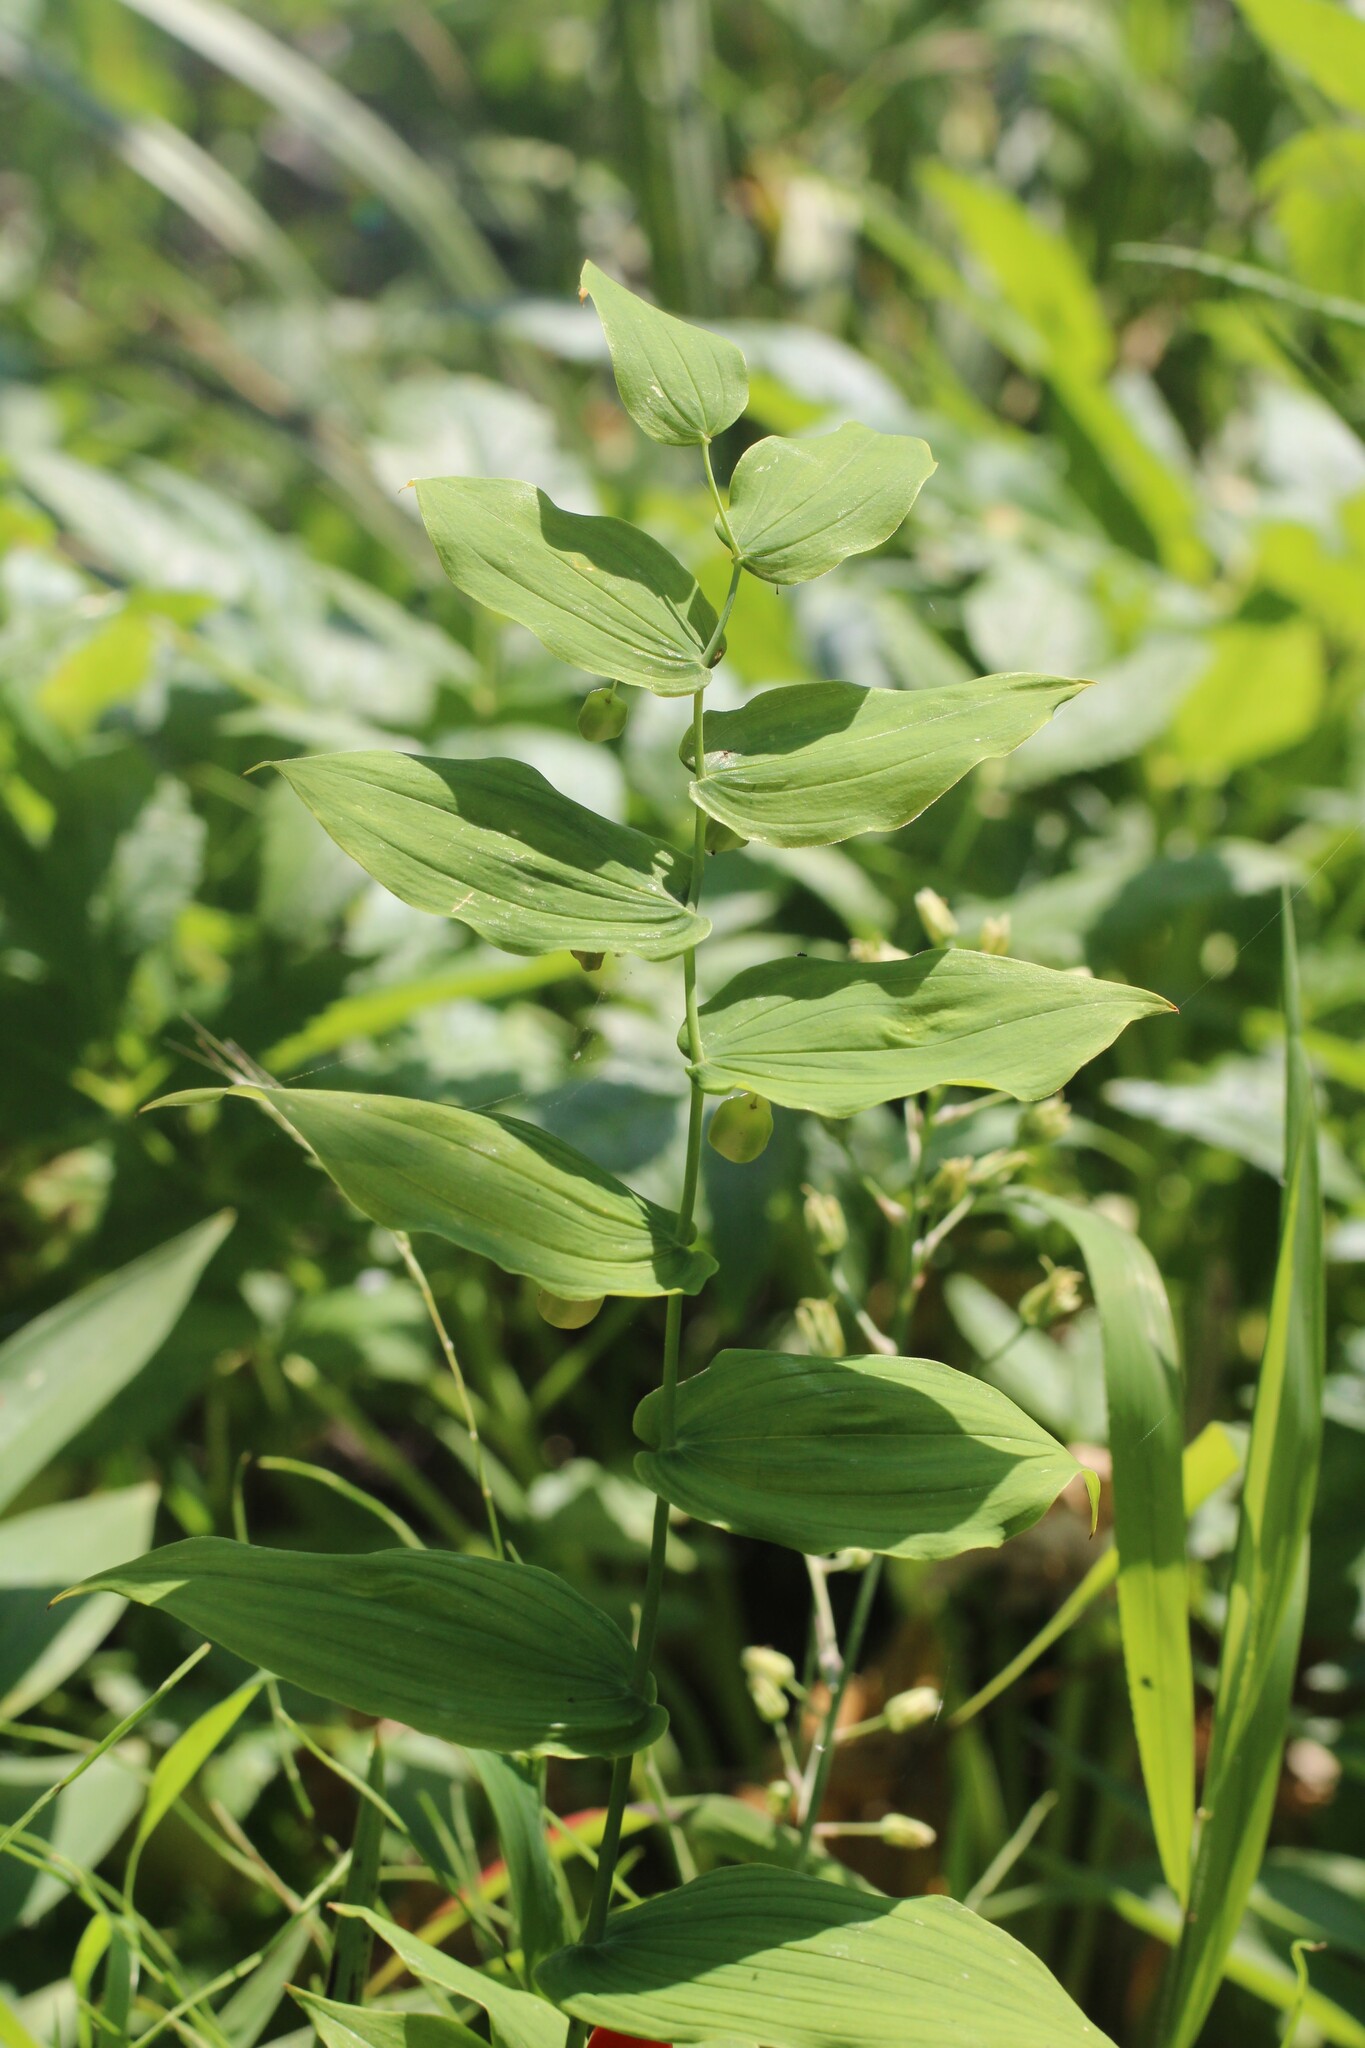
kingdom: Plantae
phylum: Tracheophyta
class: Liliopsida
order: Liliales
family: Liliaceae
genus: Streptopus
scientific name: Streptopus amplexifolius
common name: Clasp twisted stalk
